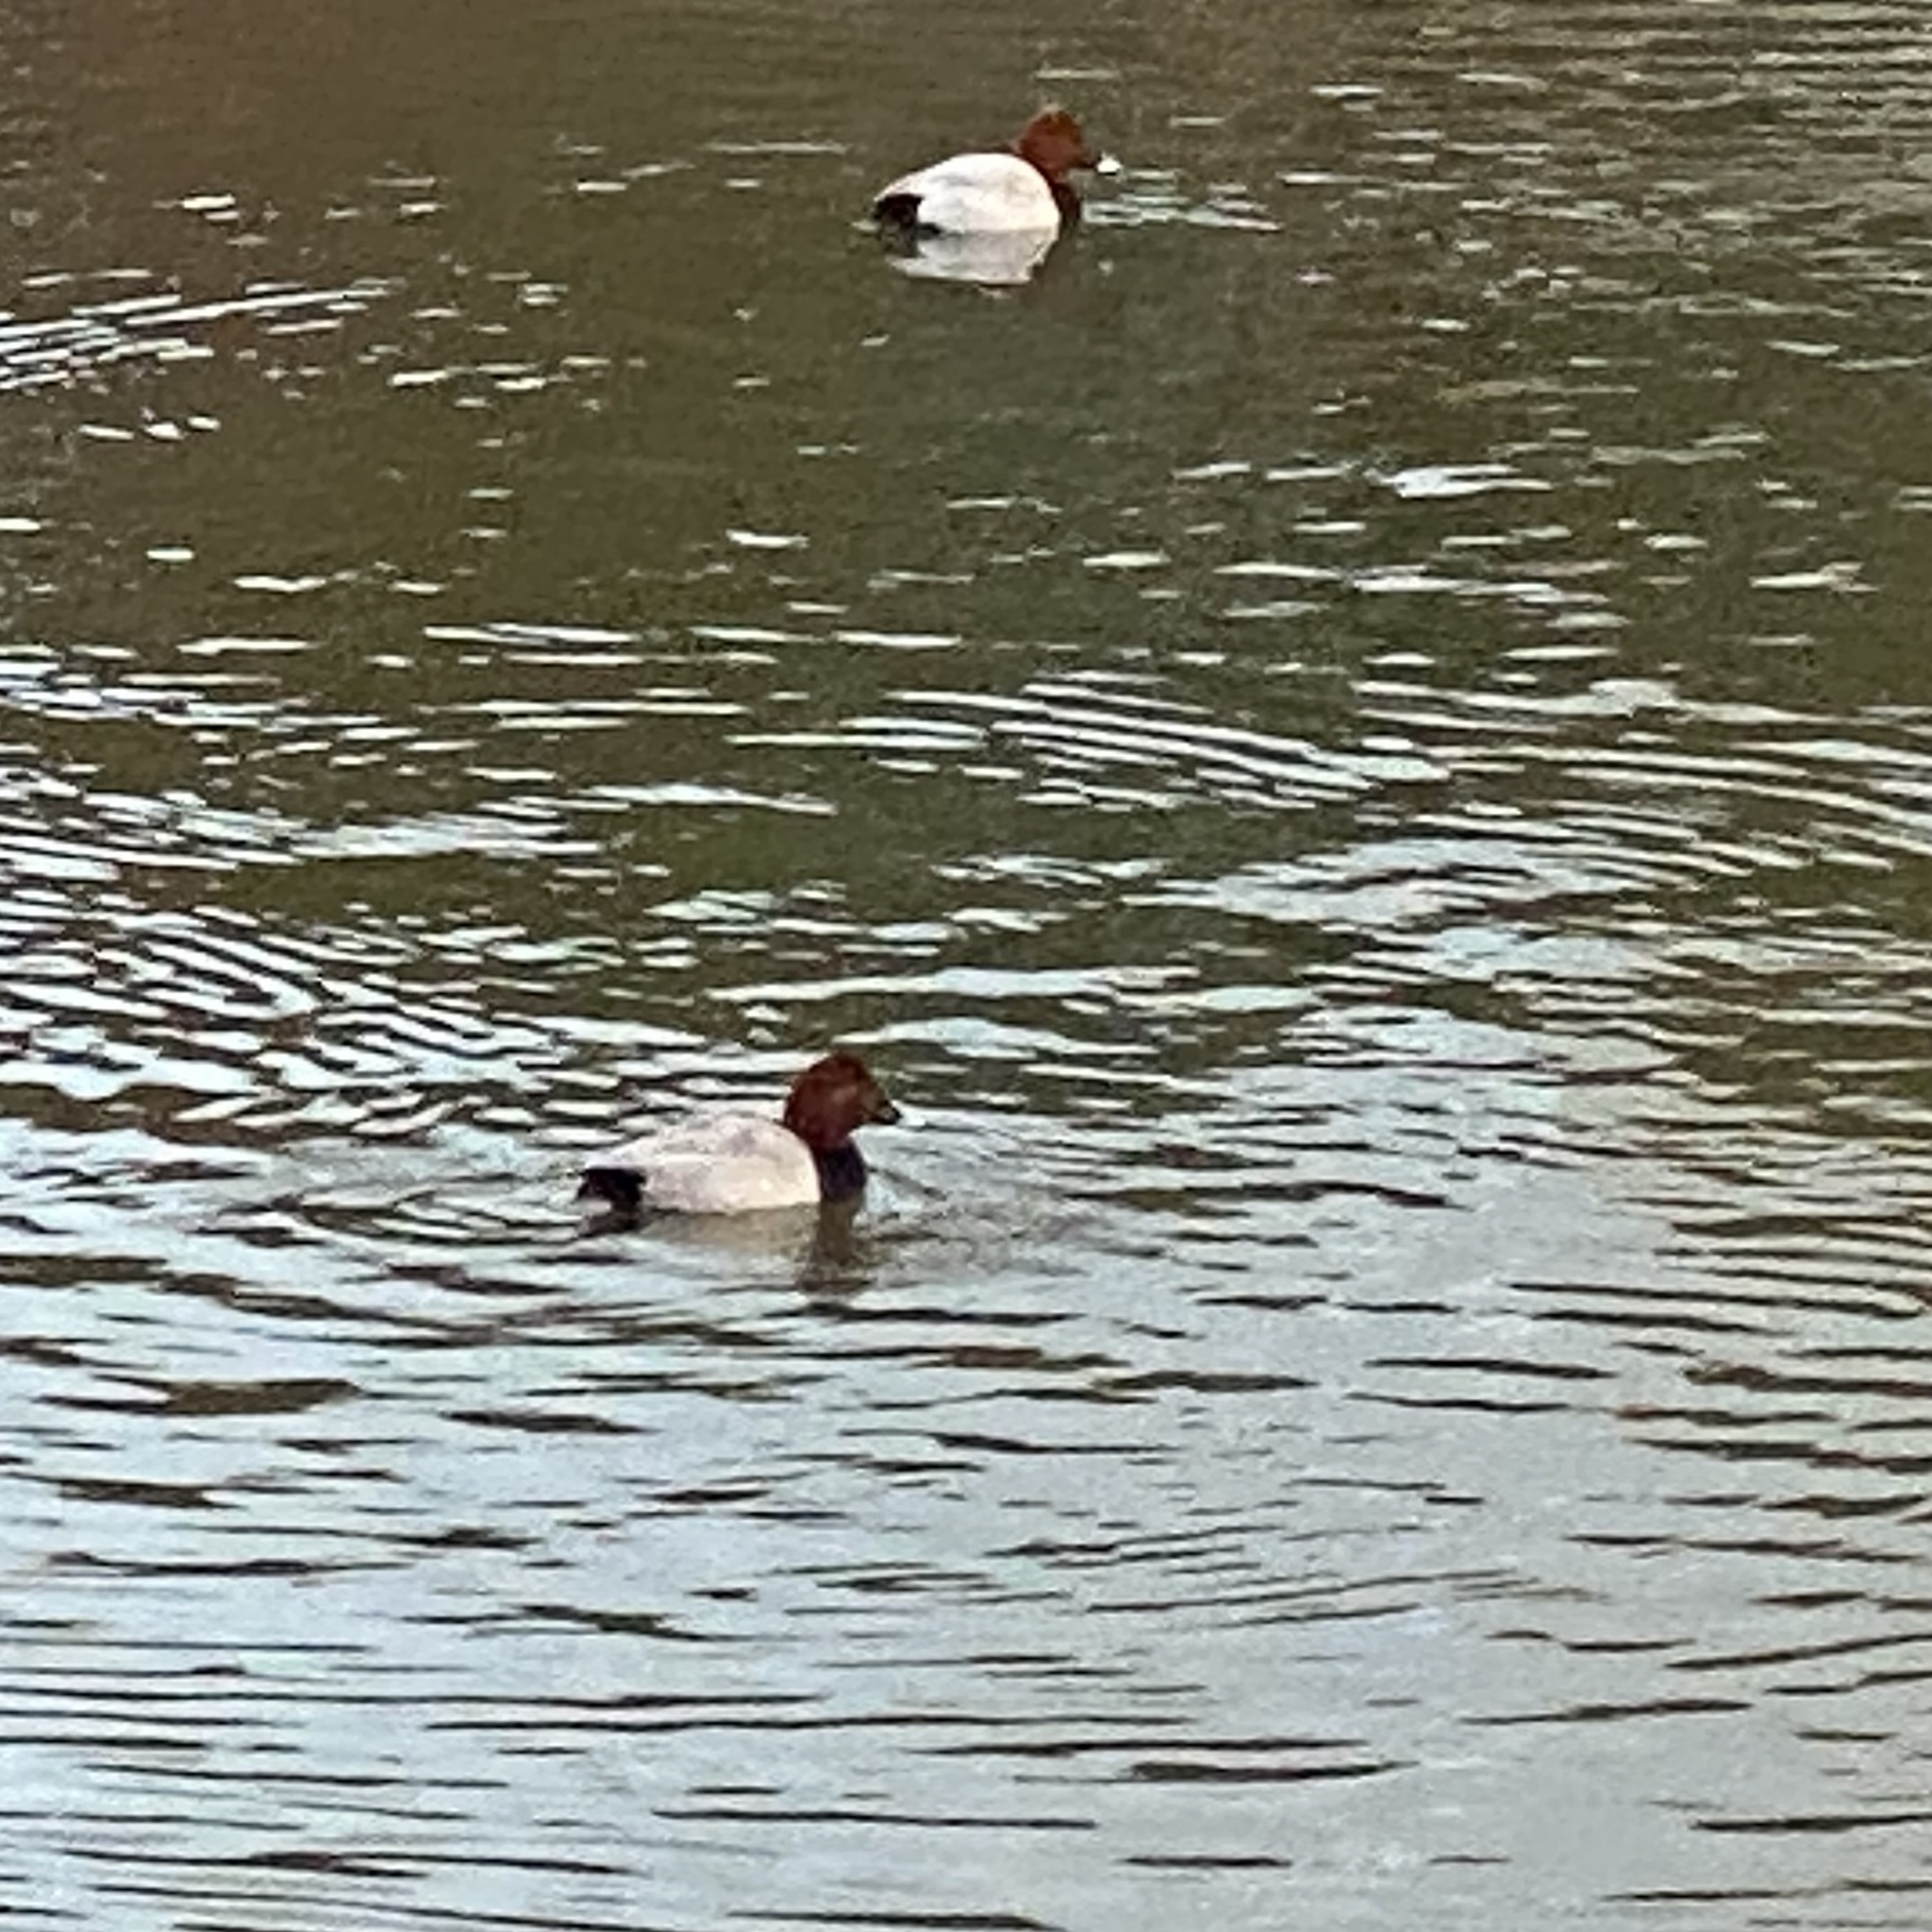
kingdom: Animalia
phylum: Chordata
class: Aves
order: Anseriformes
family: Anatidae
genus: Aythya
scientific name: Aythya ferina
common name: Common pochard
